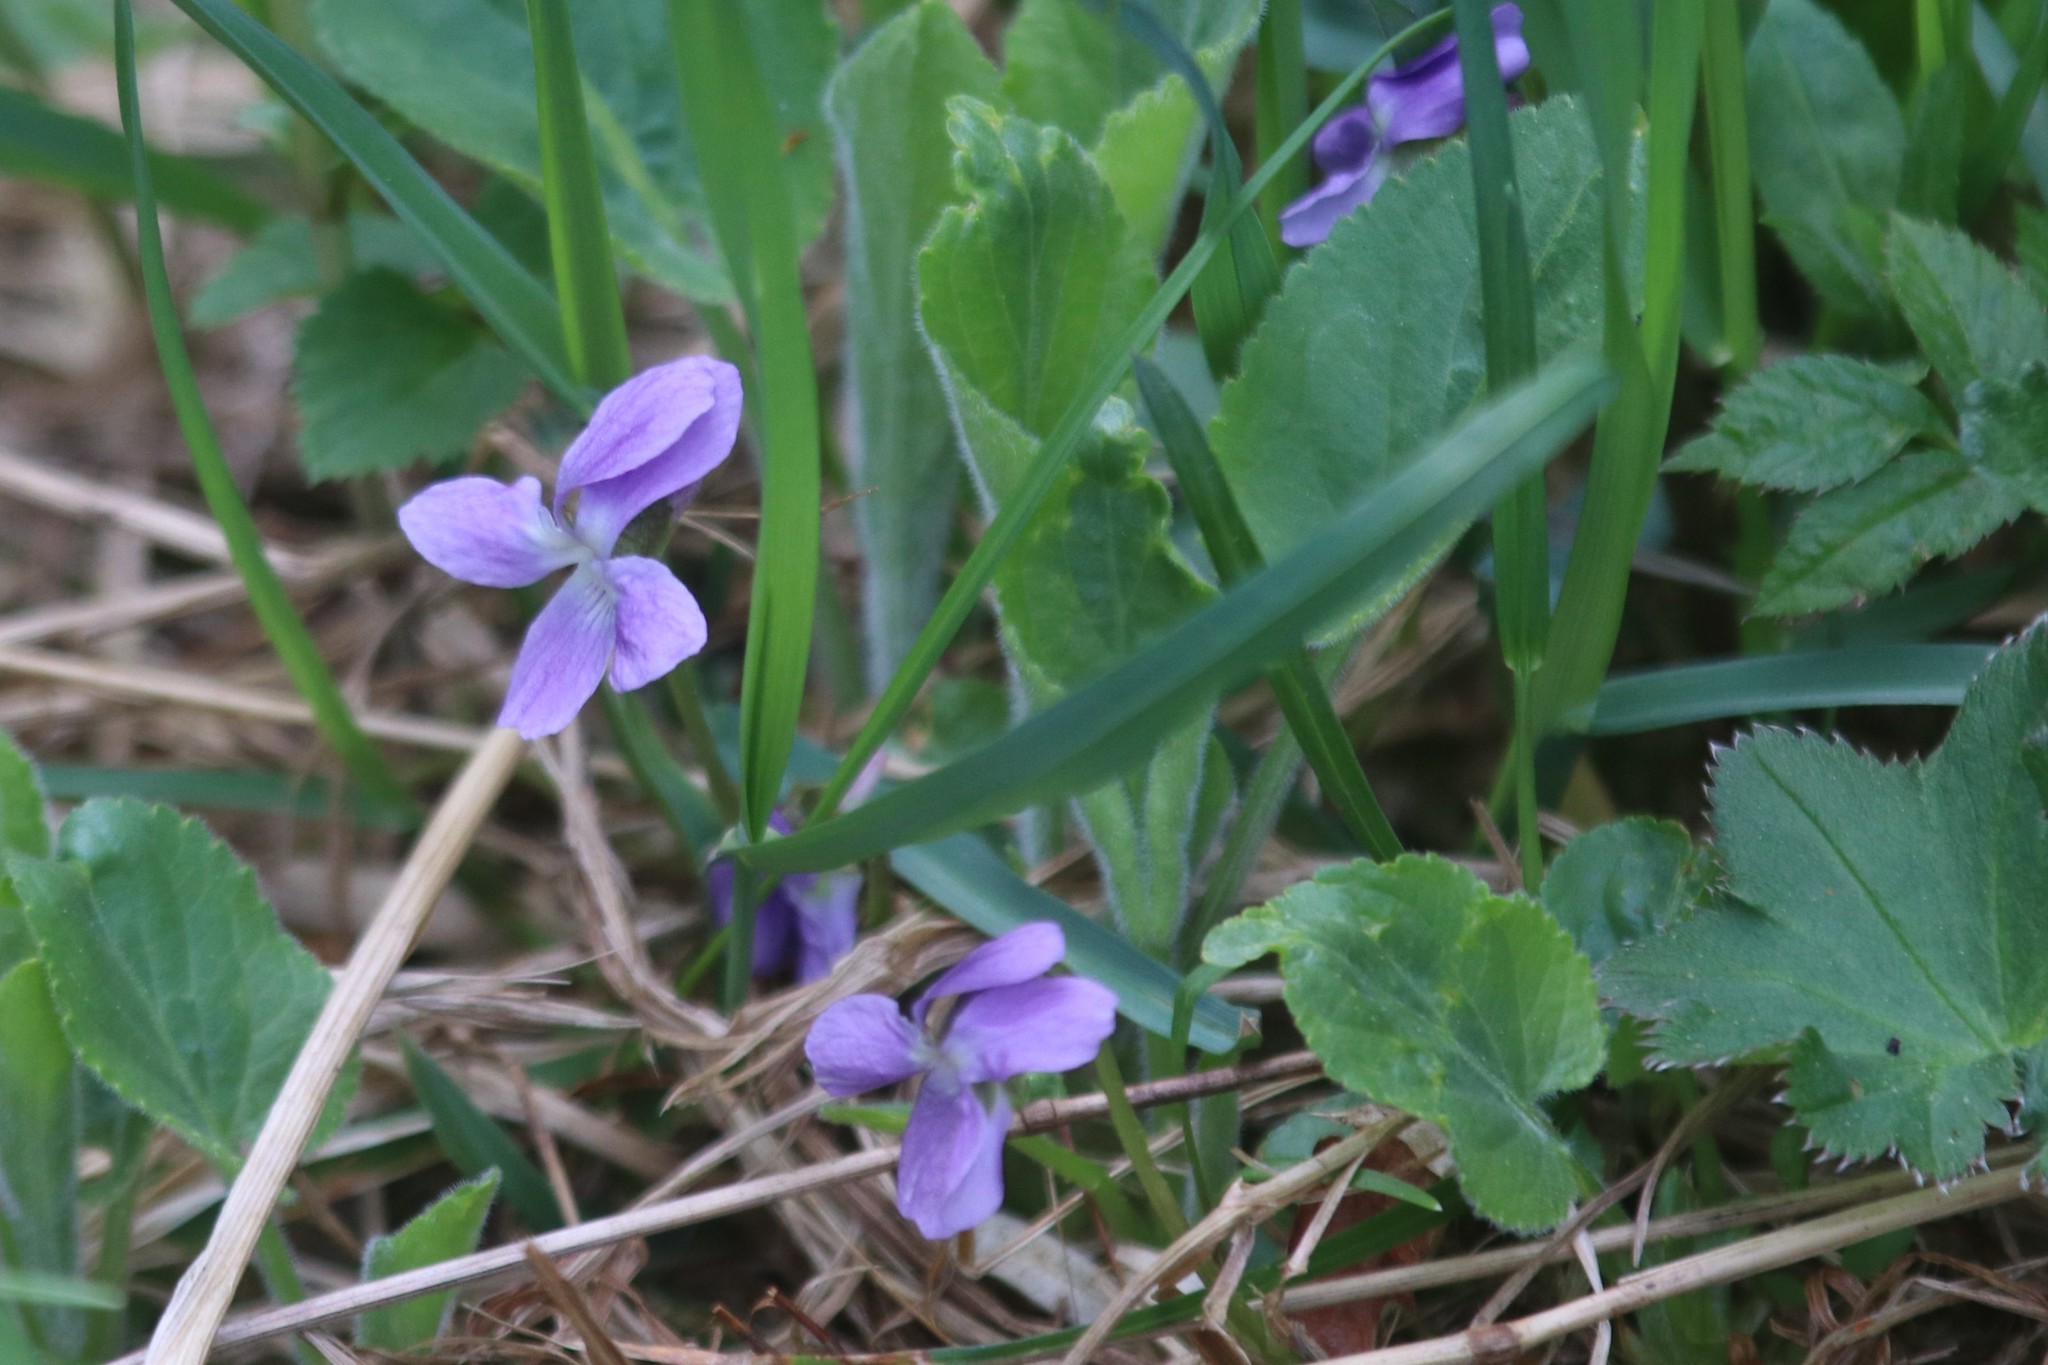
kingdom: Plantae
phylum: Tracheophyta
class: Magnoliopsida
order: Malpighiales
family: Violaceae
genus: Viola
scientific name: Viola hirta
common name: Hairy violet
